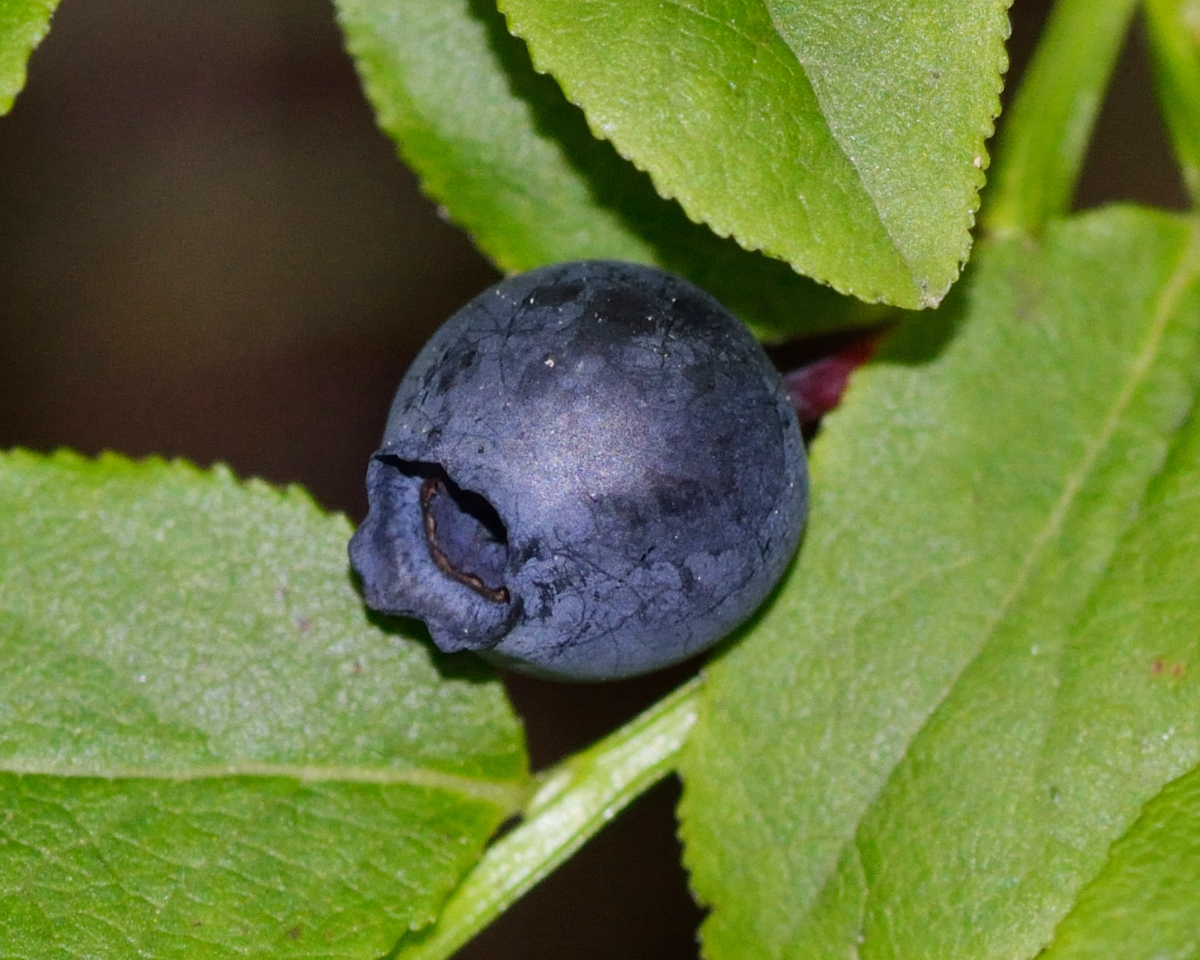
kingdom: Plantae
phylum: Tracheophyta
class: Magnoliopsida
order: Ericales
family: Ericaceae
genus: Vaccinium
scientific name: Vaccinium myrtillus
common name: Bilberry
